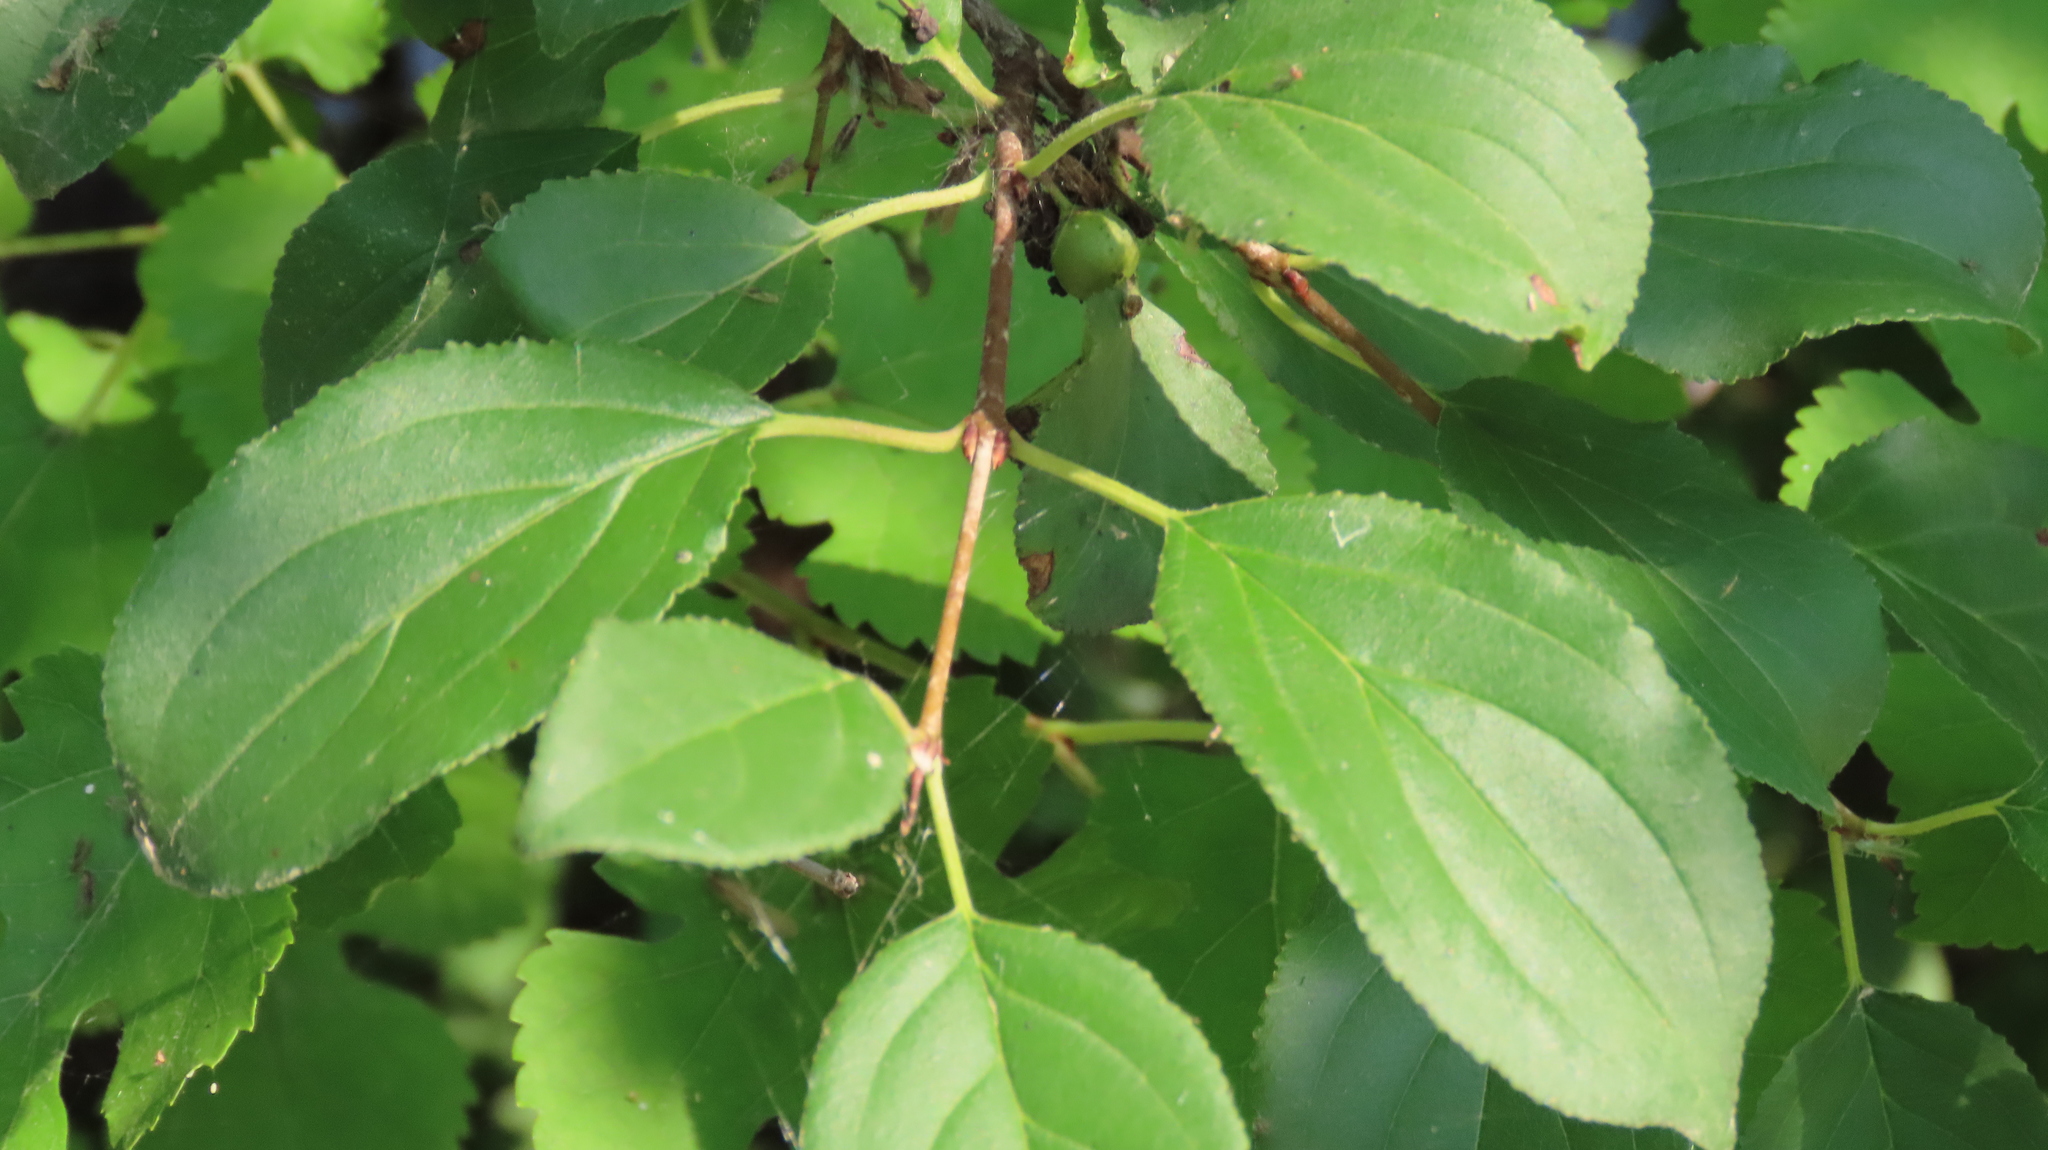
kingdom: Plantae
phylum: Tracheophyta
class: Magnoliopsida
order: Rosales
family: Rhamnaceae
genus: Rhamnus
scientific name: Rhamnus cathartica
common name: Common buckthorn
